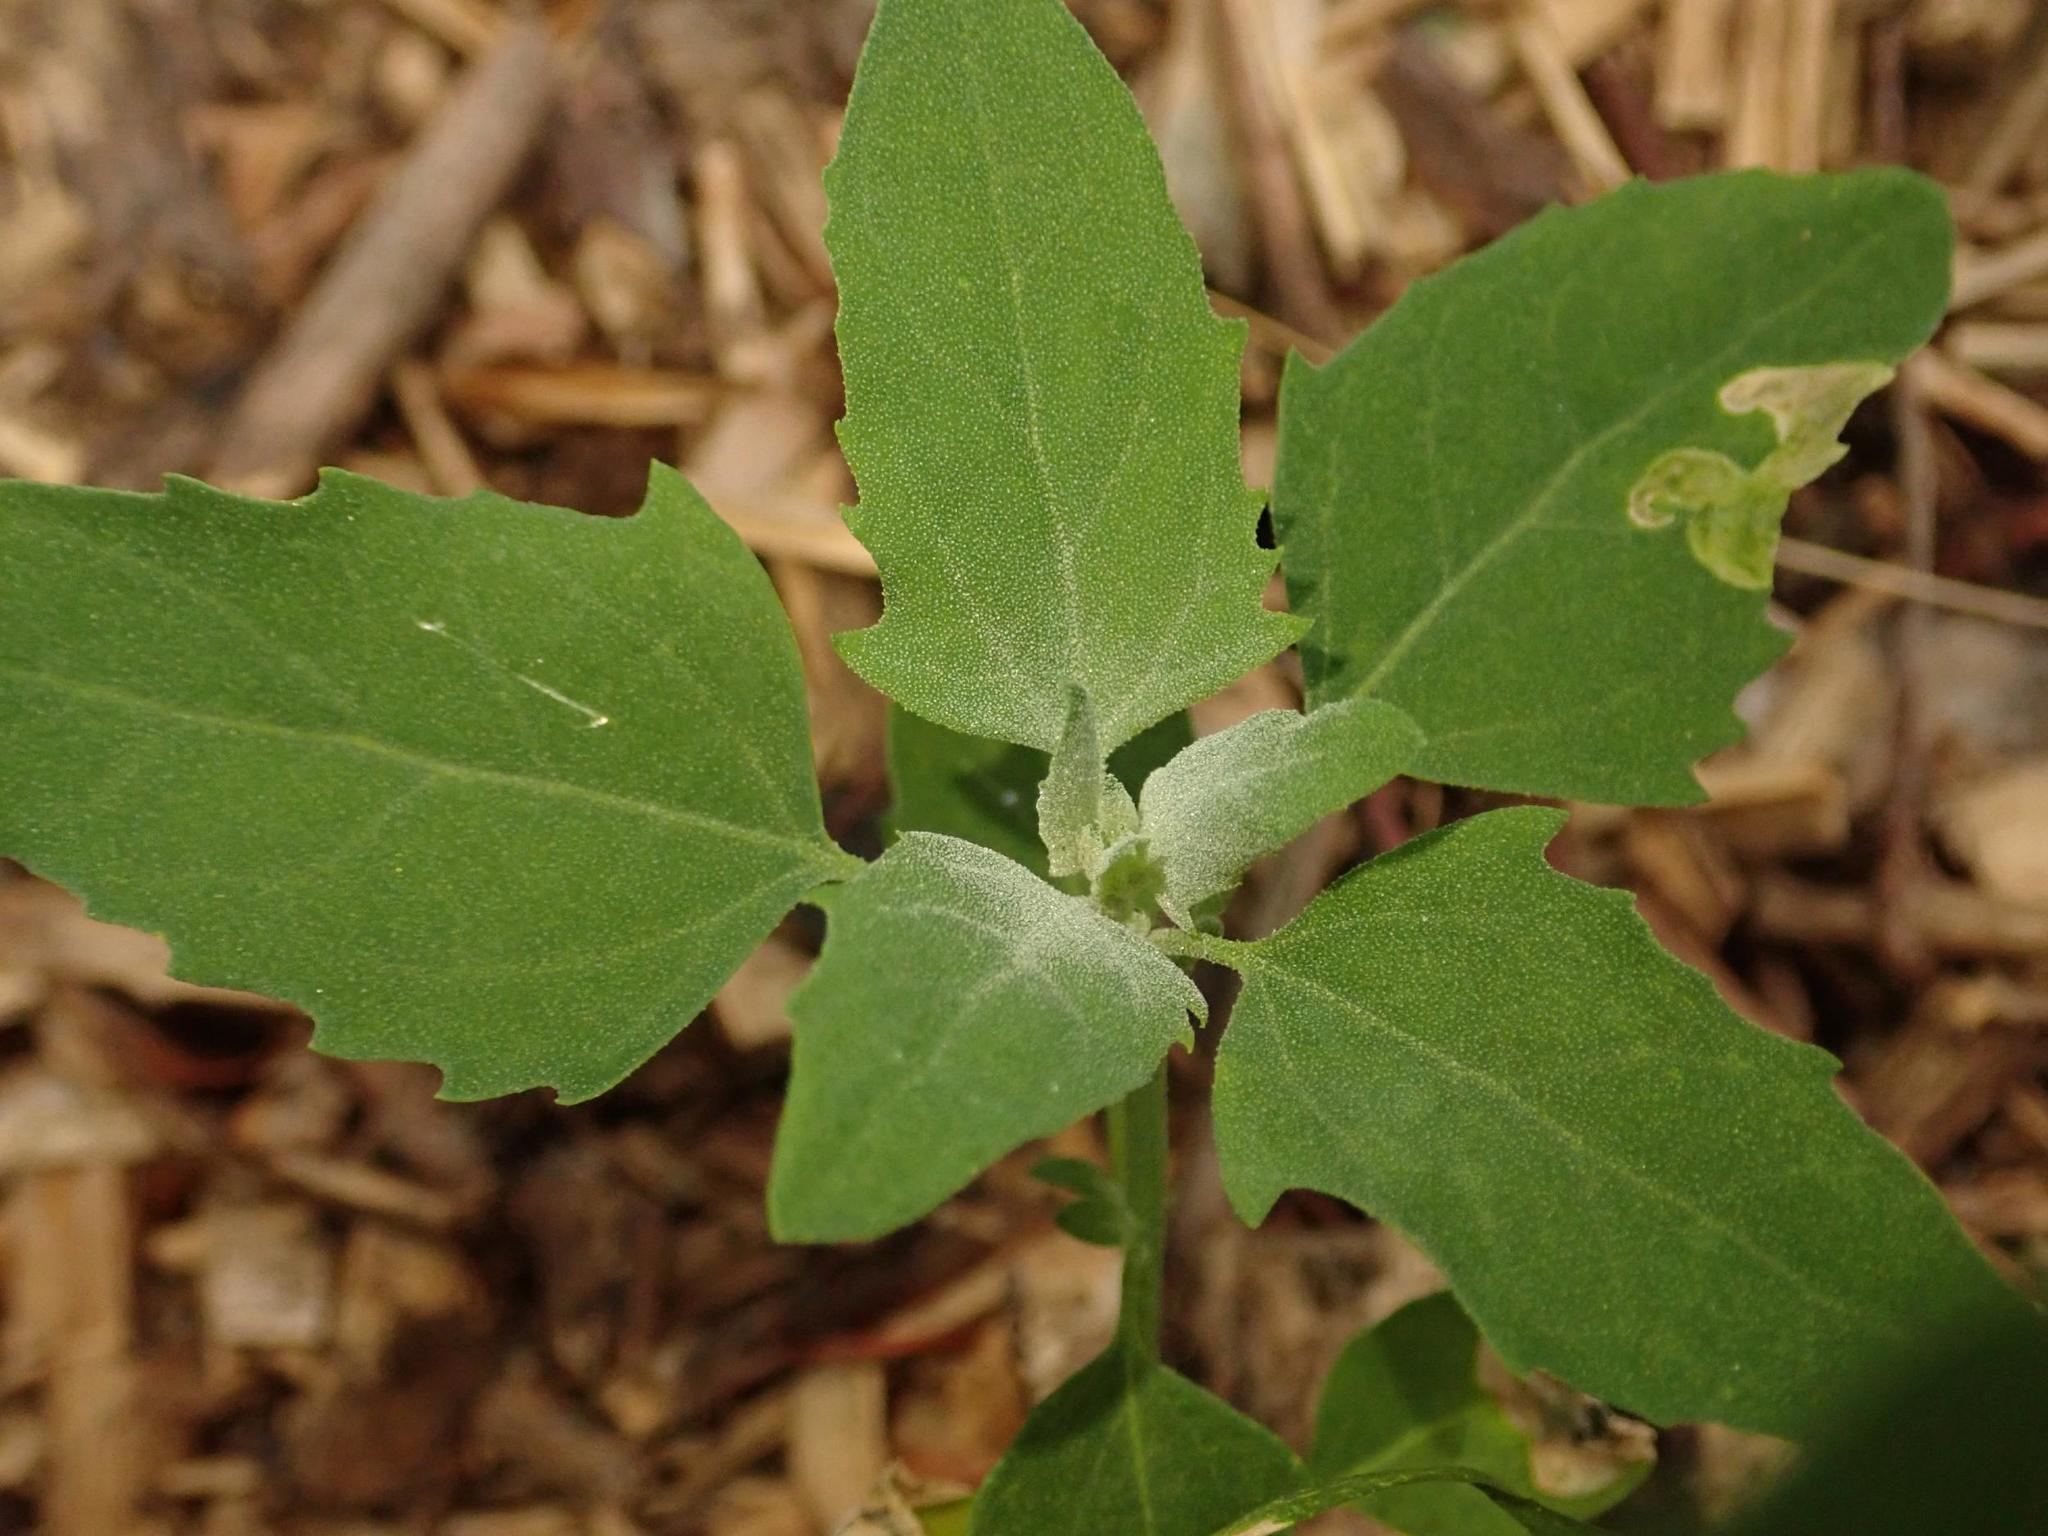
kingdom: Plantae
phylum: Tracheophyta
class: Magnoliopsida
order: Caryophyllales
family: Amaranthaceae
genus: Chenopodium
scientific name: Chenopodium album
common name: Fat-hen
